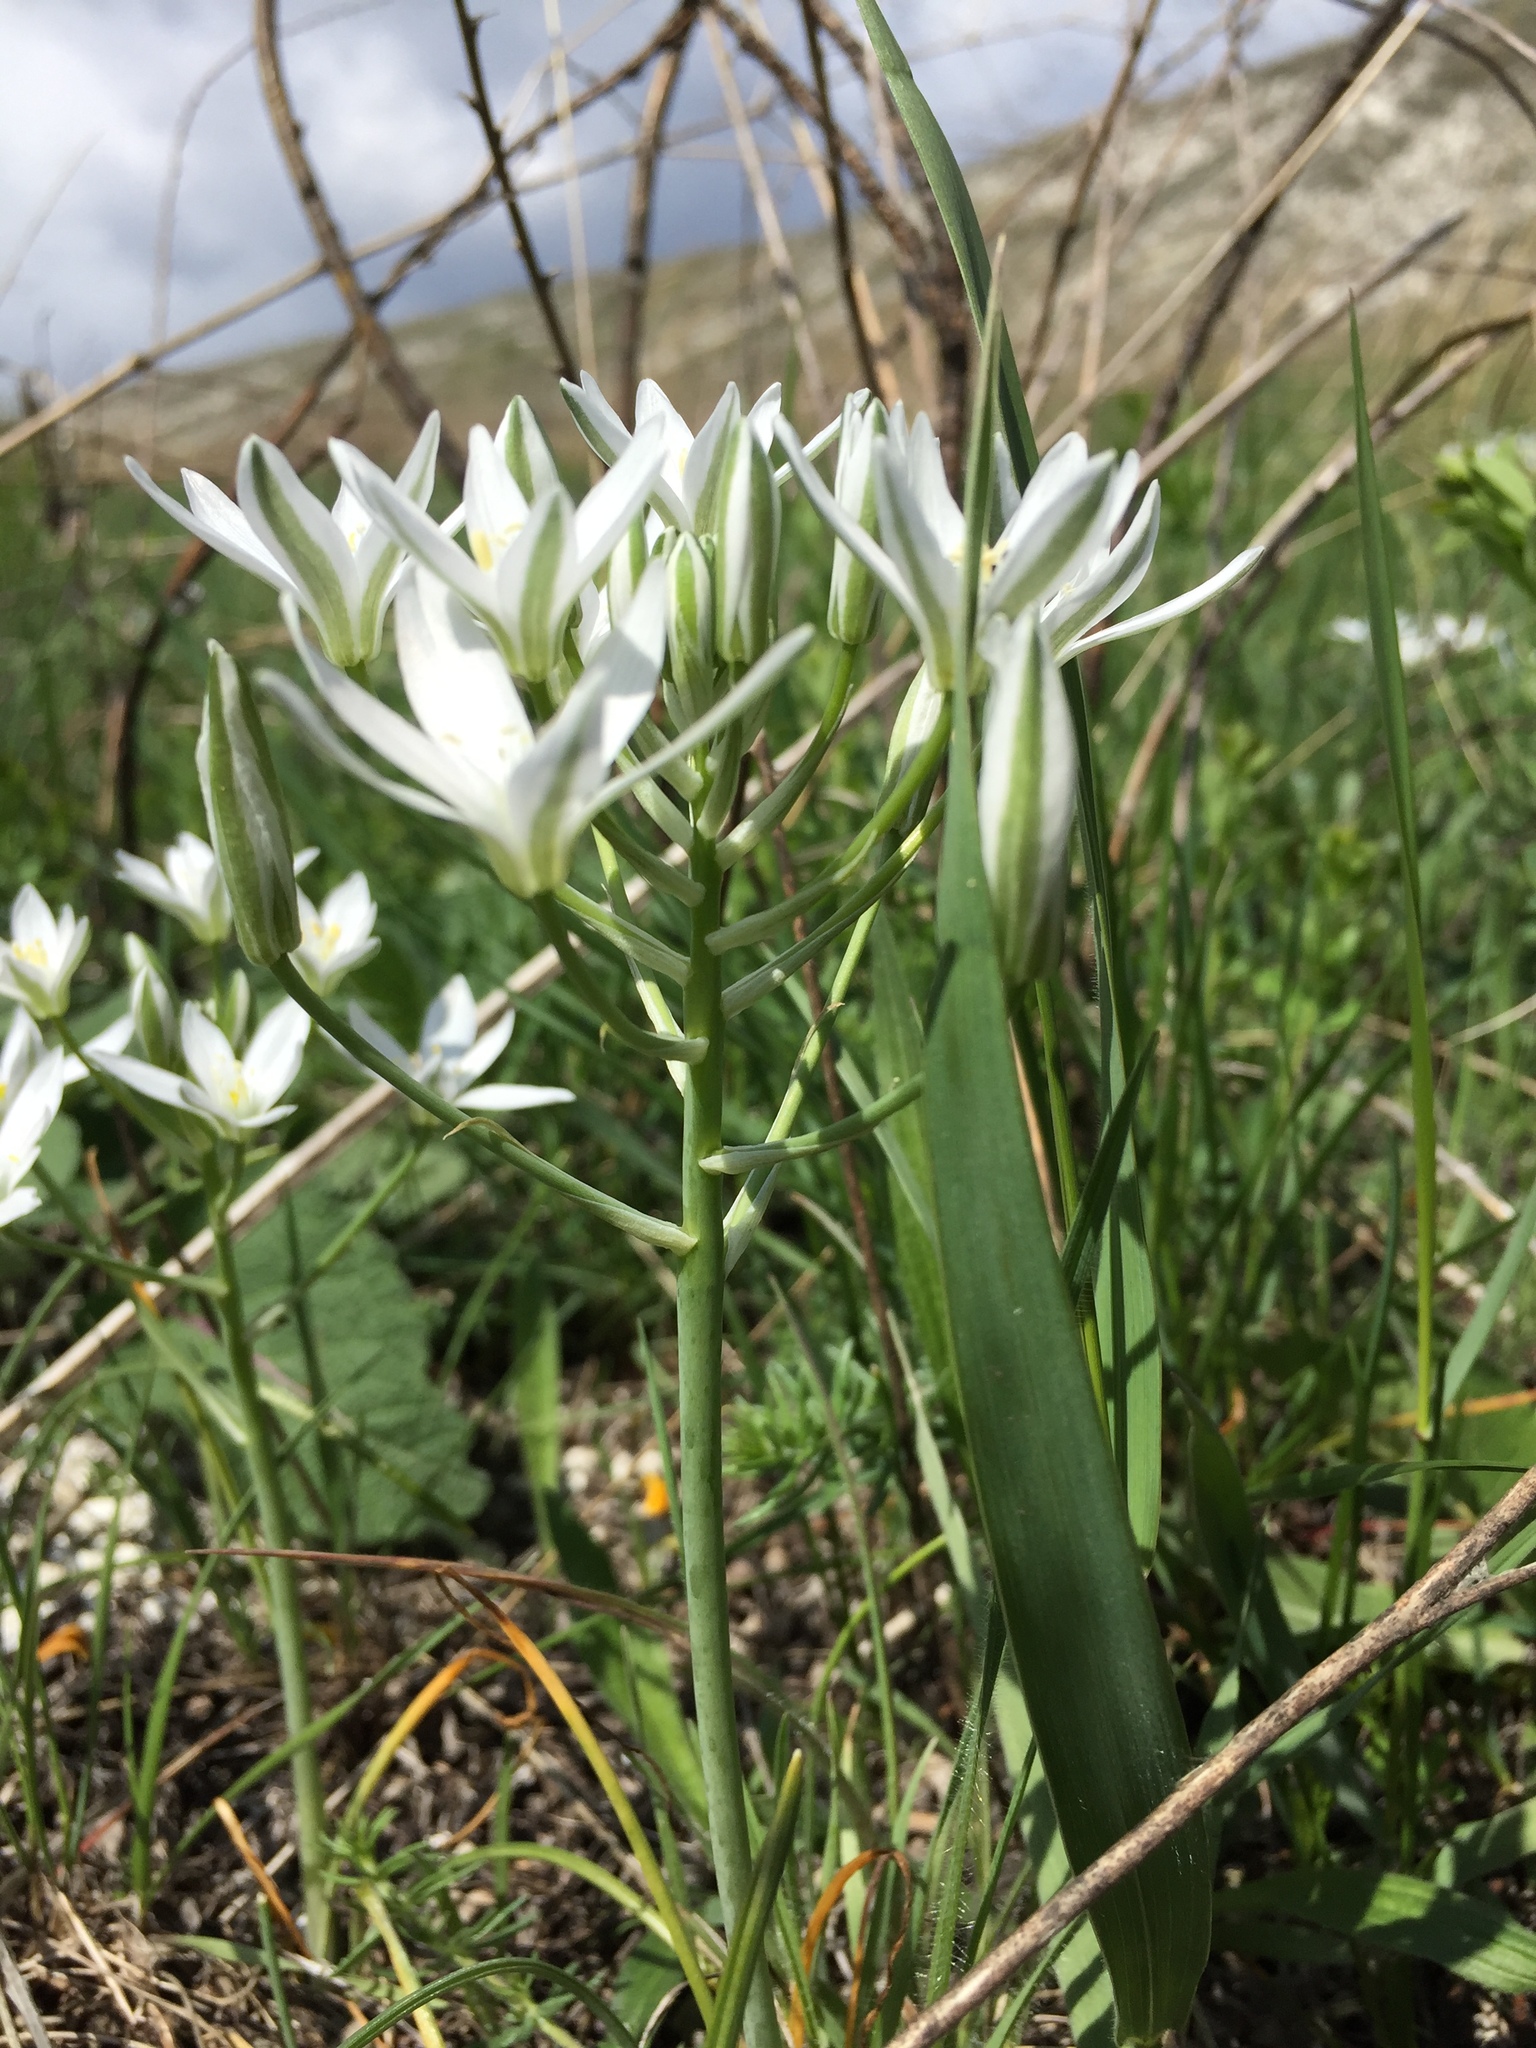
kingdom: Plantae
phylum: Tracheophyta
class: Liliopsida
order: Asparagales
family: Asparagaceae
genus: Ornithogalum
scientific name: Ornithogalum orthophyllum
